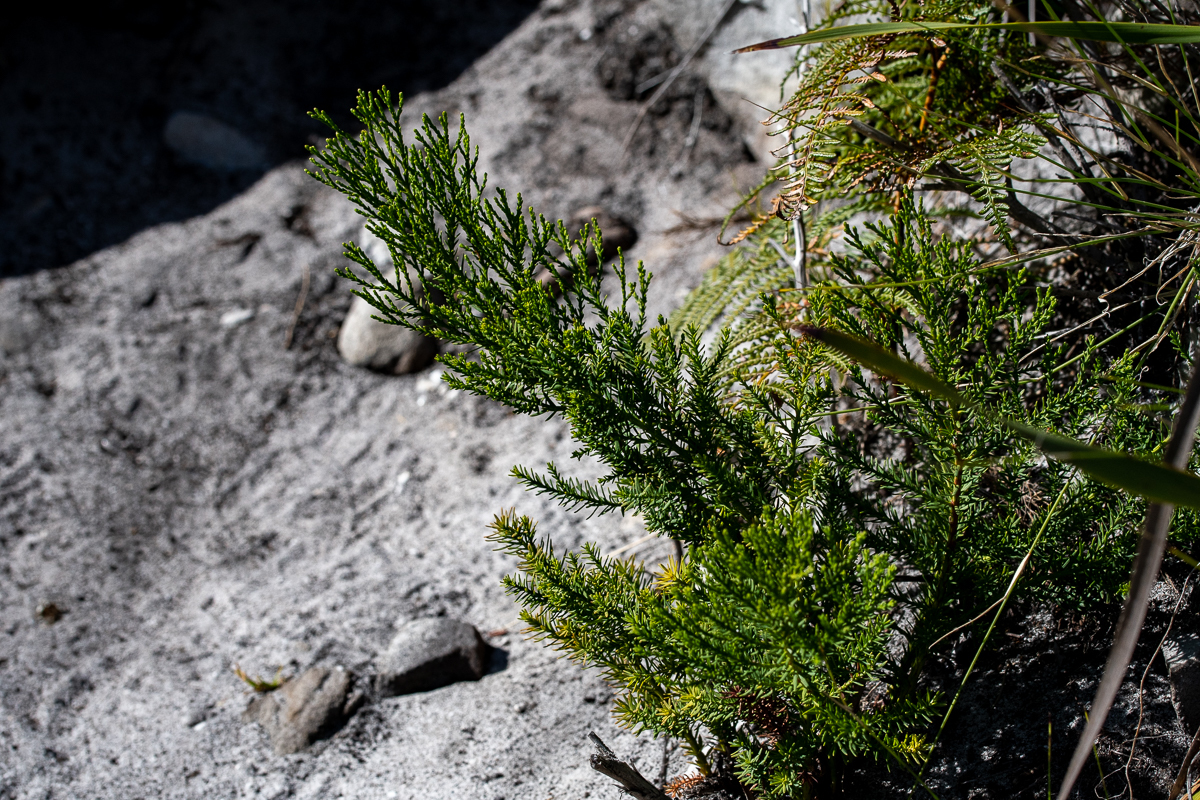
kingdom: Plantae
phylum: Tracheophyta
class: Pinopsida
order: Pinales
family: Cupressaceae
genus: Widdringtonia
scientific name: Widdringtonia nodiflora
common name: Cape cypress
